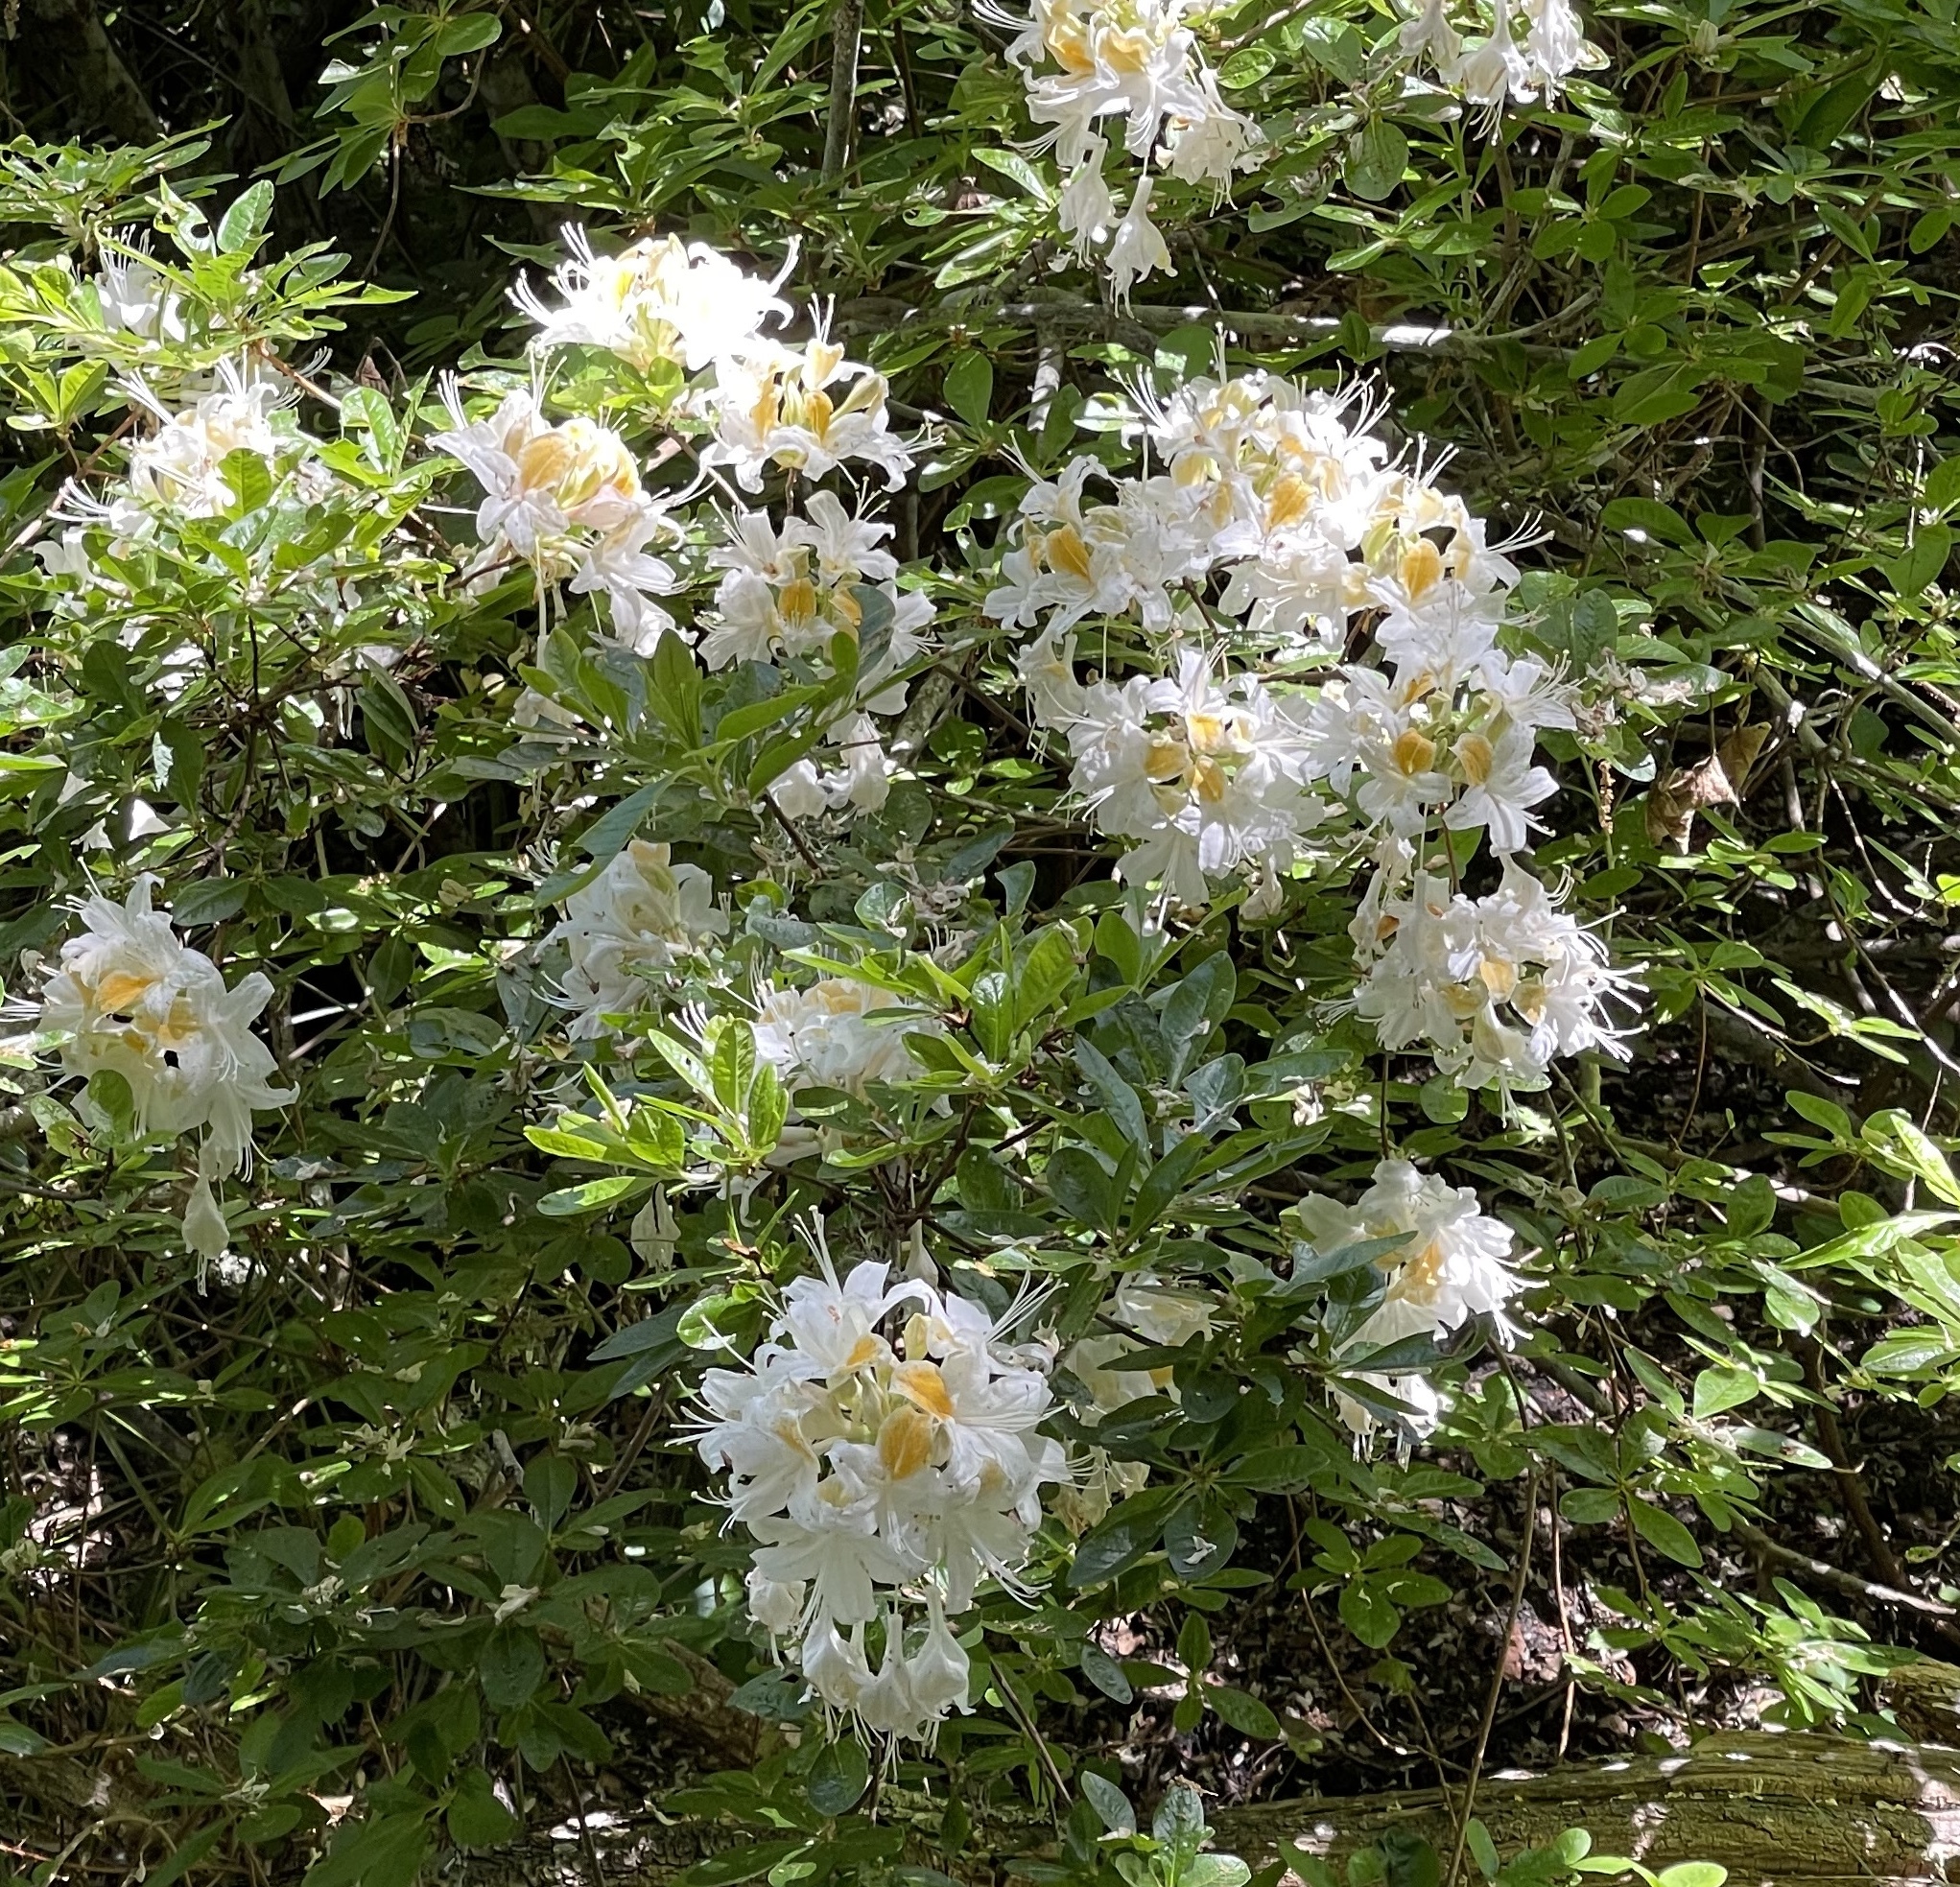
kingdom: Plantae
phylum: Tracheophyta
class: Magnoliopsida
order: Ericales
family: Ericaceae
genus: Rhododendron
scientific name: Rhododendron occidentale
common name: Western azalea
